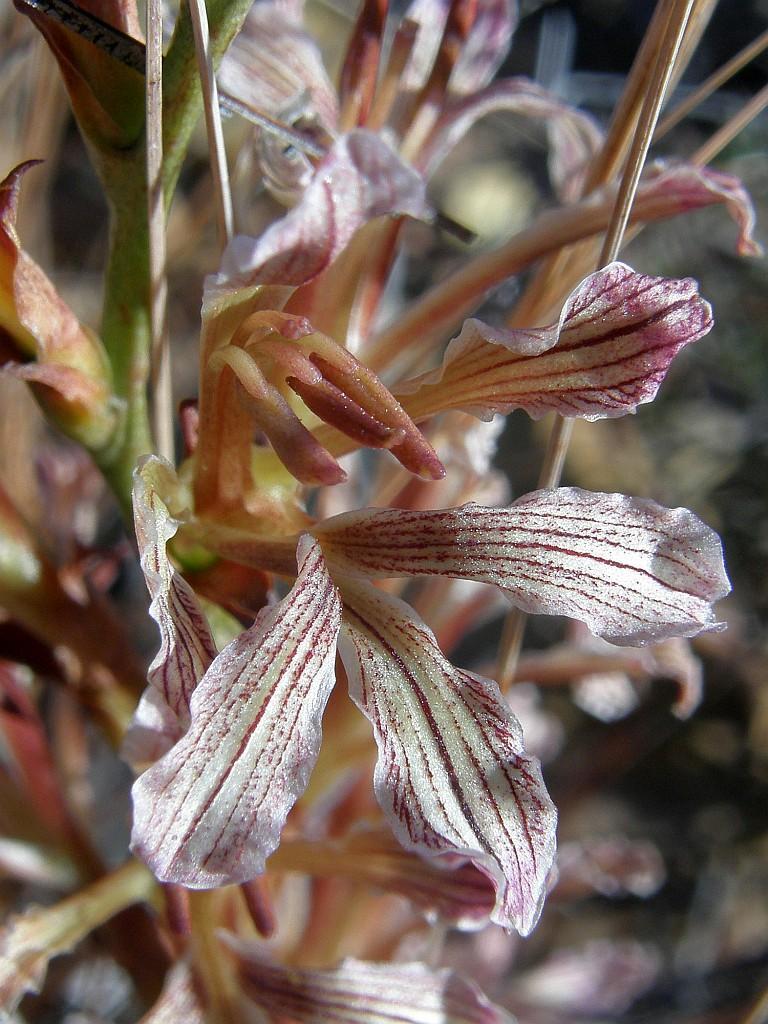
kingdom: Plantae
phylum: Tracheophyta
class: Liliopsida
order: Asparagales
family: Iridaceae
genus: Tritoniopsis
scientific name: Tritoniopsis elongata
